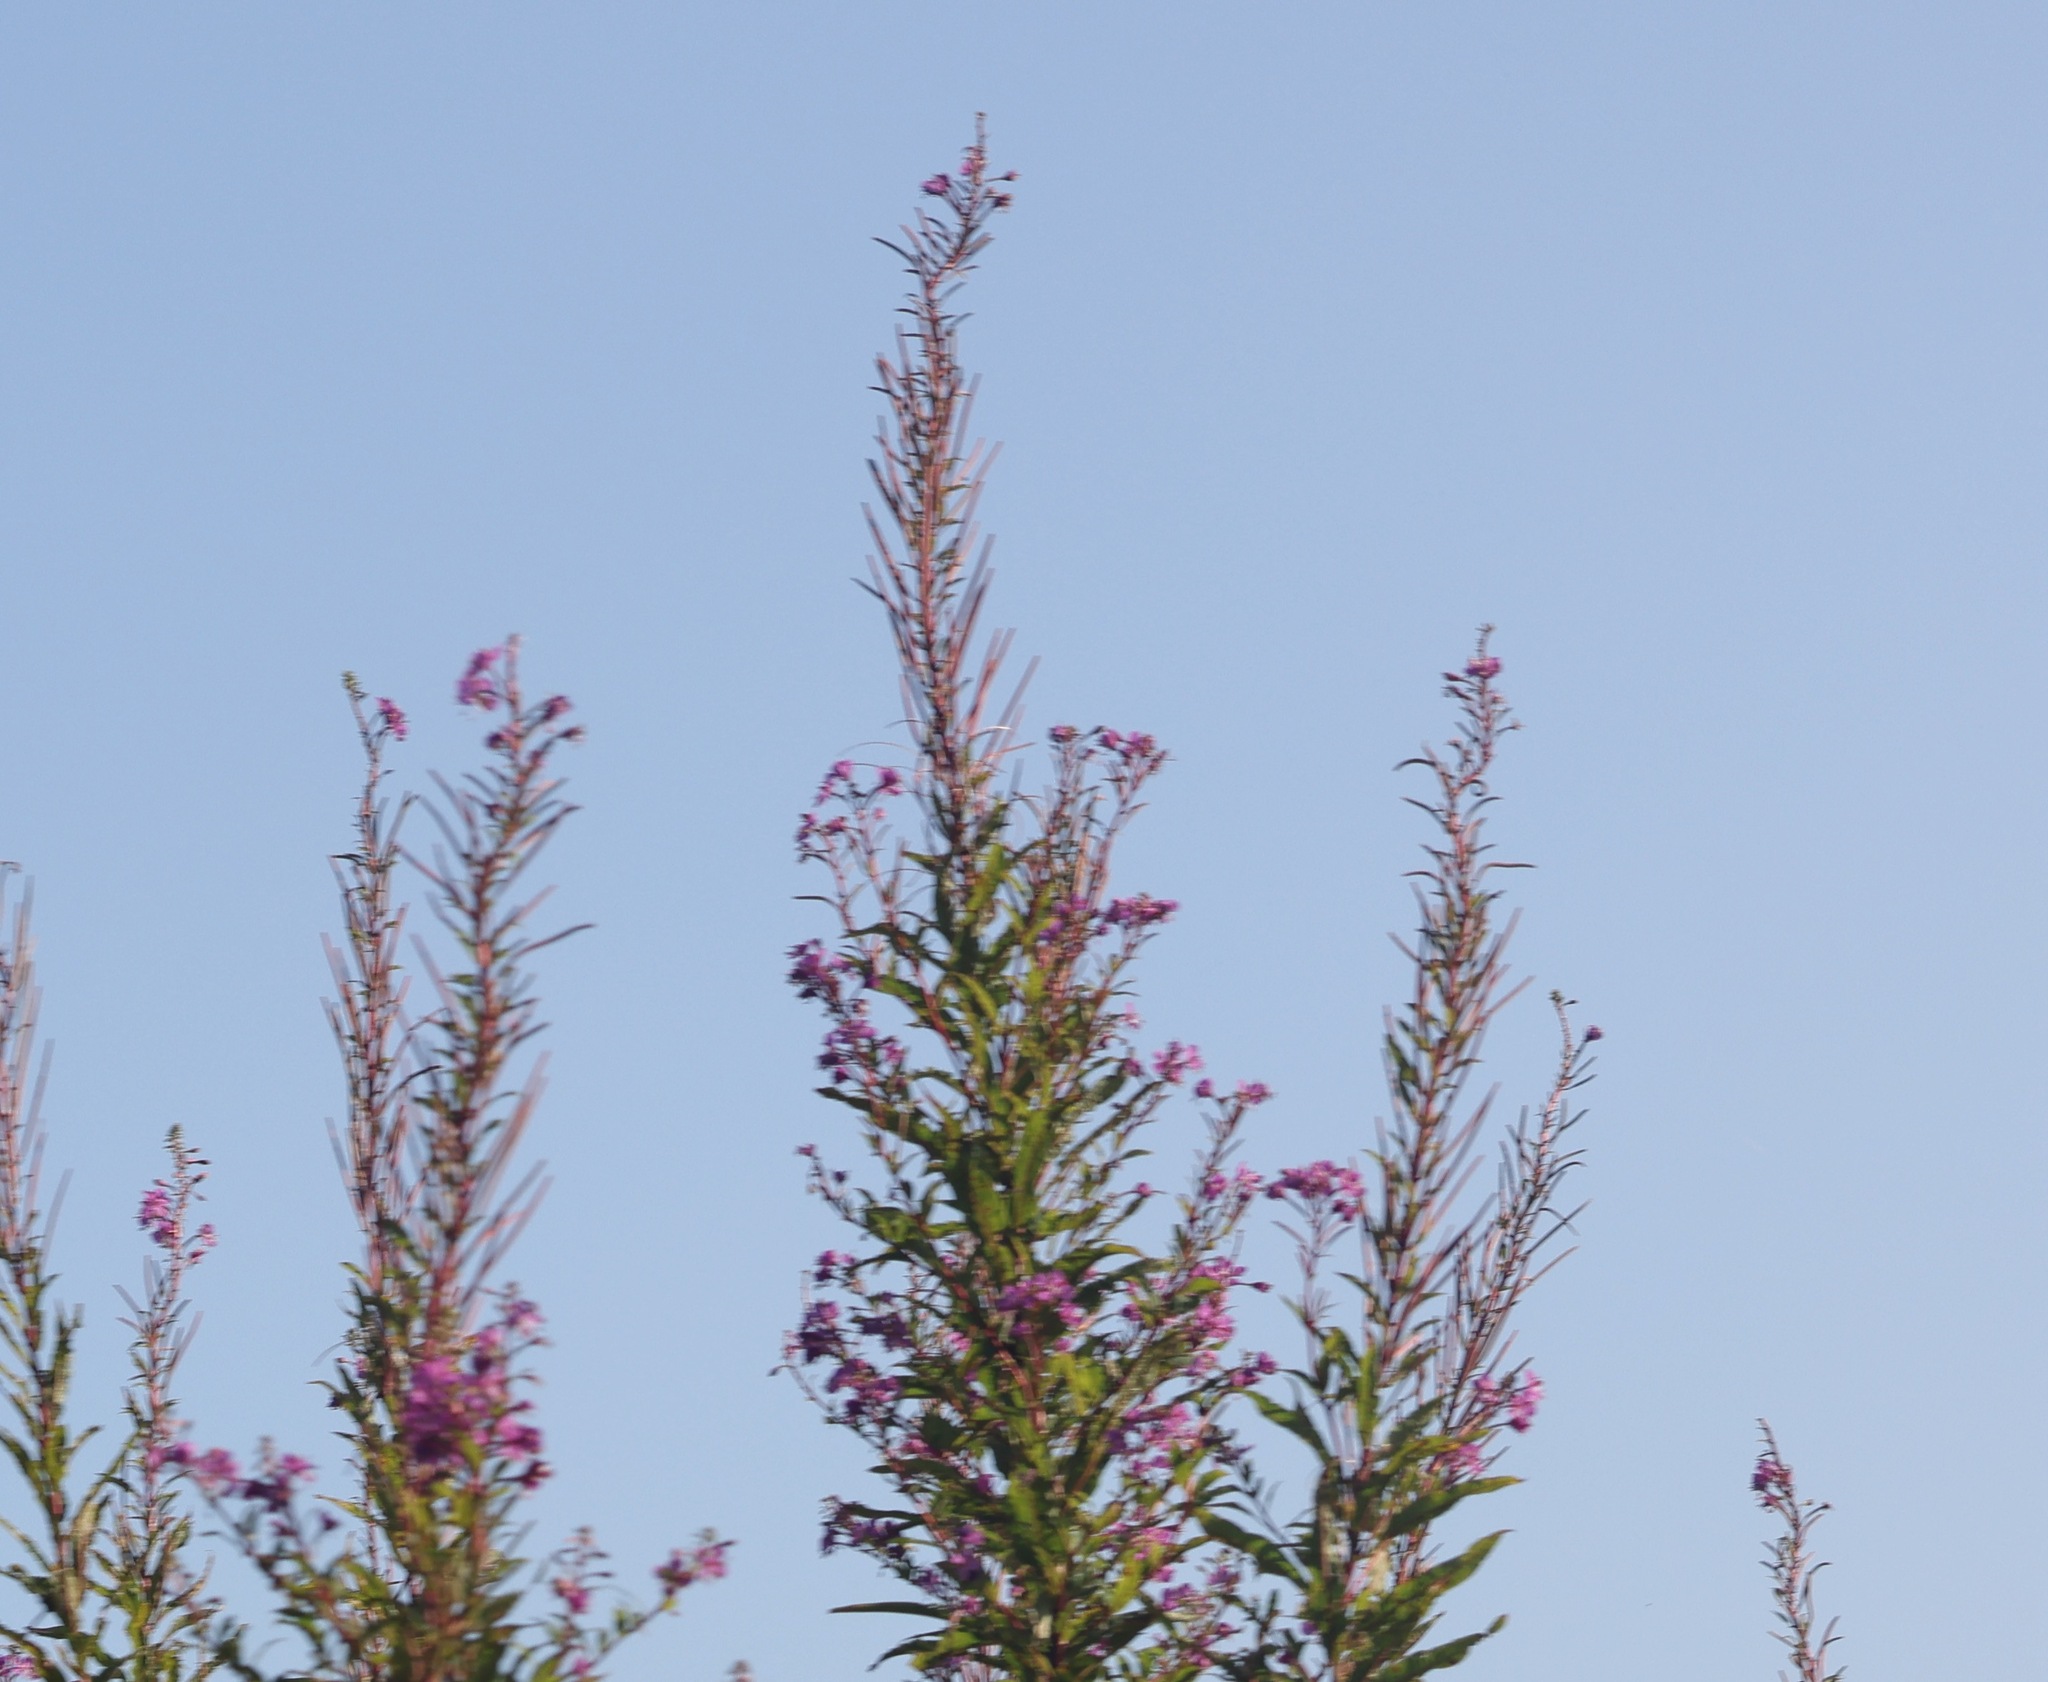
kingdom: Plantae
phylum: Tracheophyta
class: Magnoliopsida
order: Myrtales
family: Onagraceae
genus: Chamaenerion
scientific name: Chamaenerion angustifolium
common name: Fireweed
